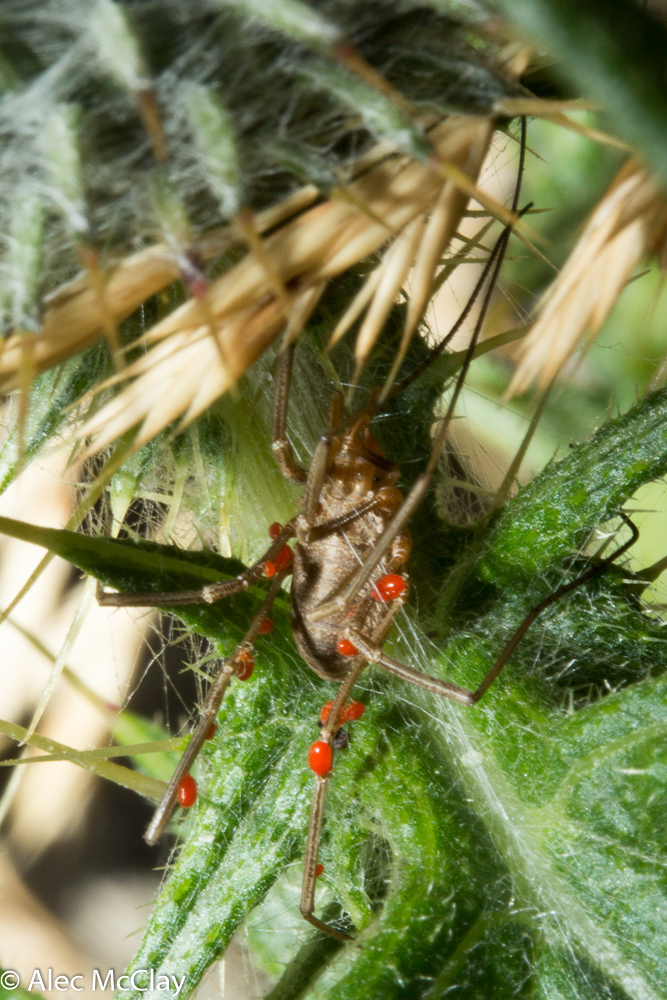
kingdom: Animalia
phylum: Arthropoda
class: Arachnida
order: Opiliones
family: Phalangiidae
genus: Phalangium
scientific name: Phalangium opilio
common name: Daddy longleg
